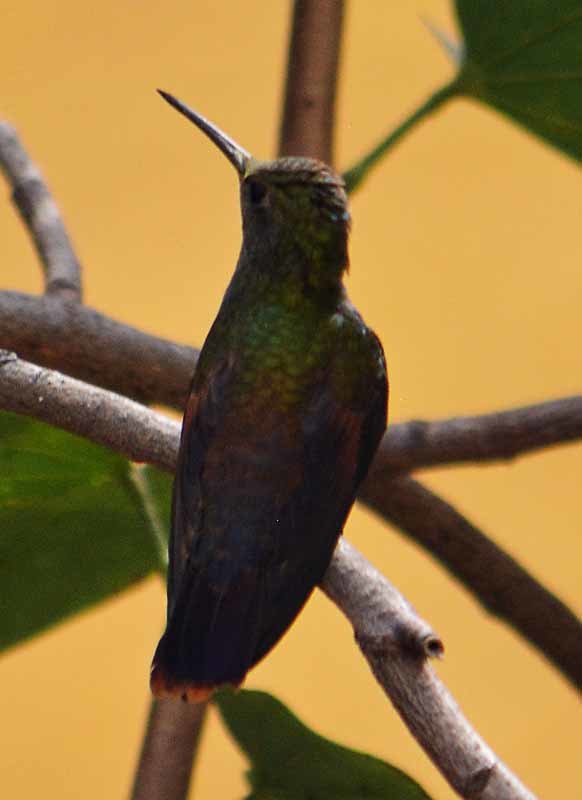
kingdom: Animalia
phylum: Chordata
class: Aves
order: Apodiformes
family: Trochilidae
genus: Saucerottia
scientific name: Saucerottia beryllina
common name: Berylline hummingbird
